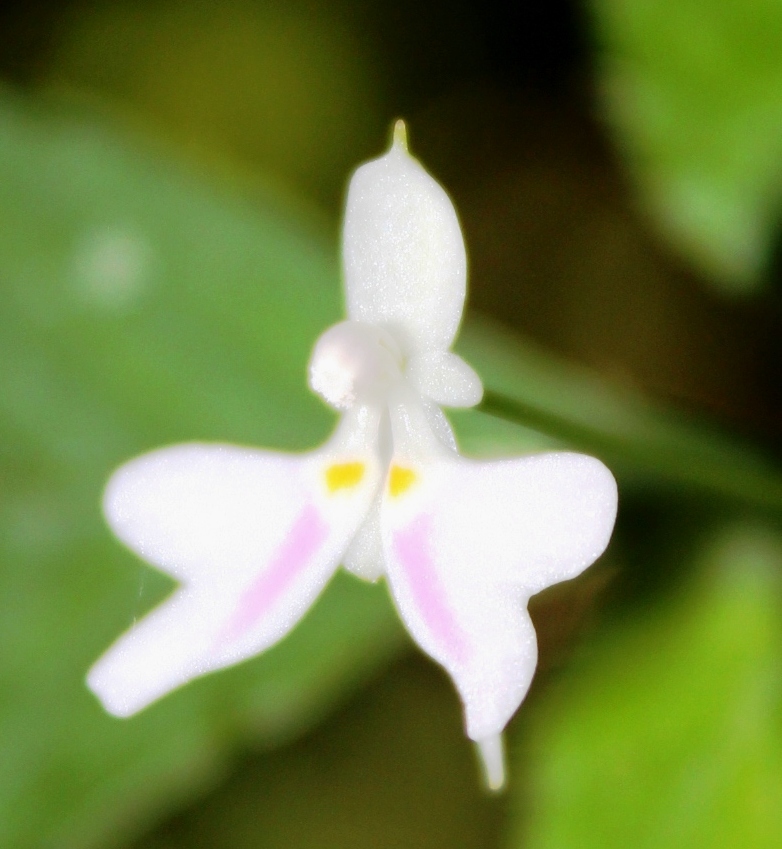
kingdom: Plantae
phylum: Tracheophyta
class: Magnoliopsida
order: Ericales
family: Balsaminaceae
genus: Impatiens
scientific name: Impatiens hochstetteri
